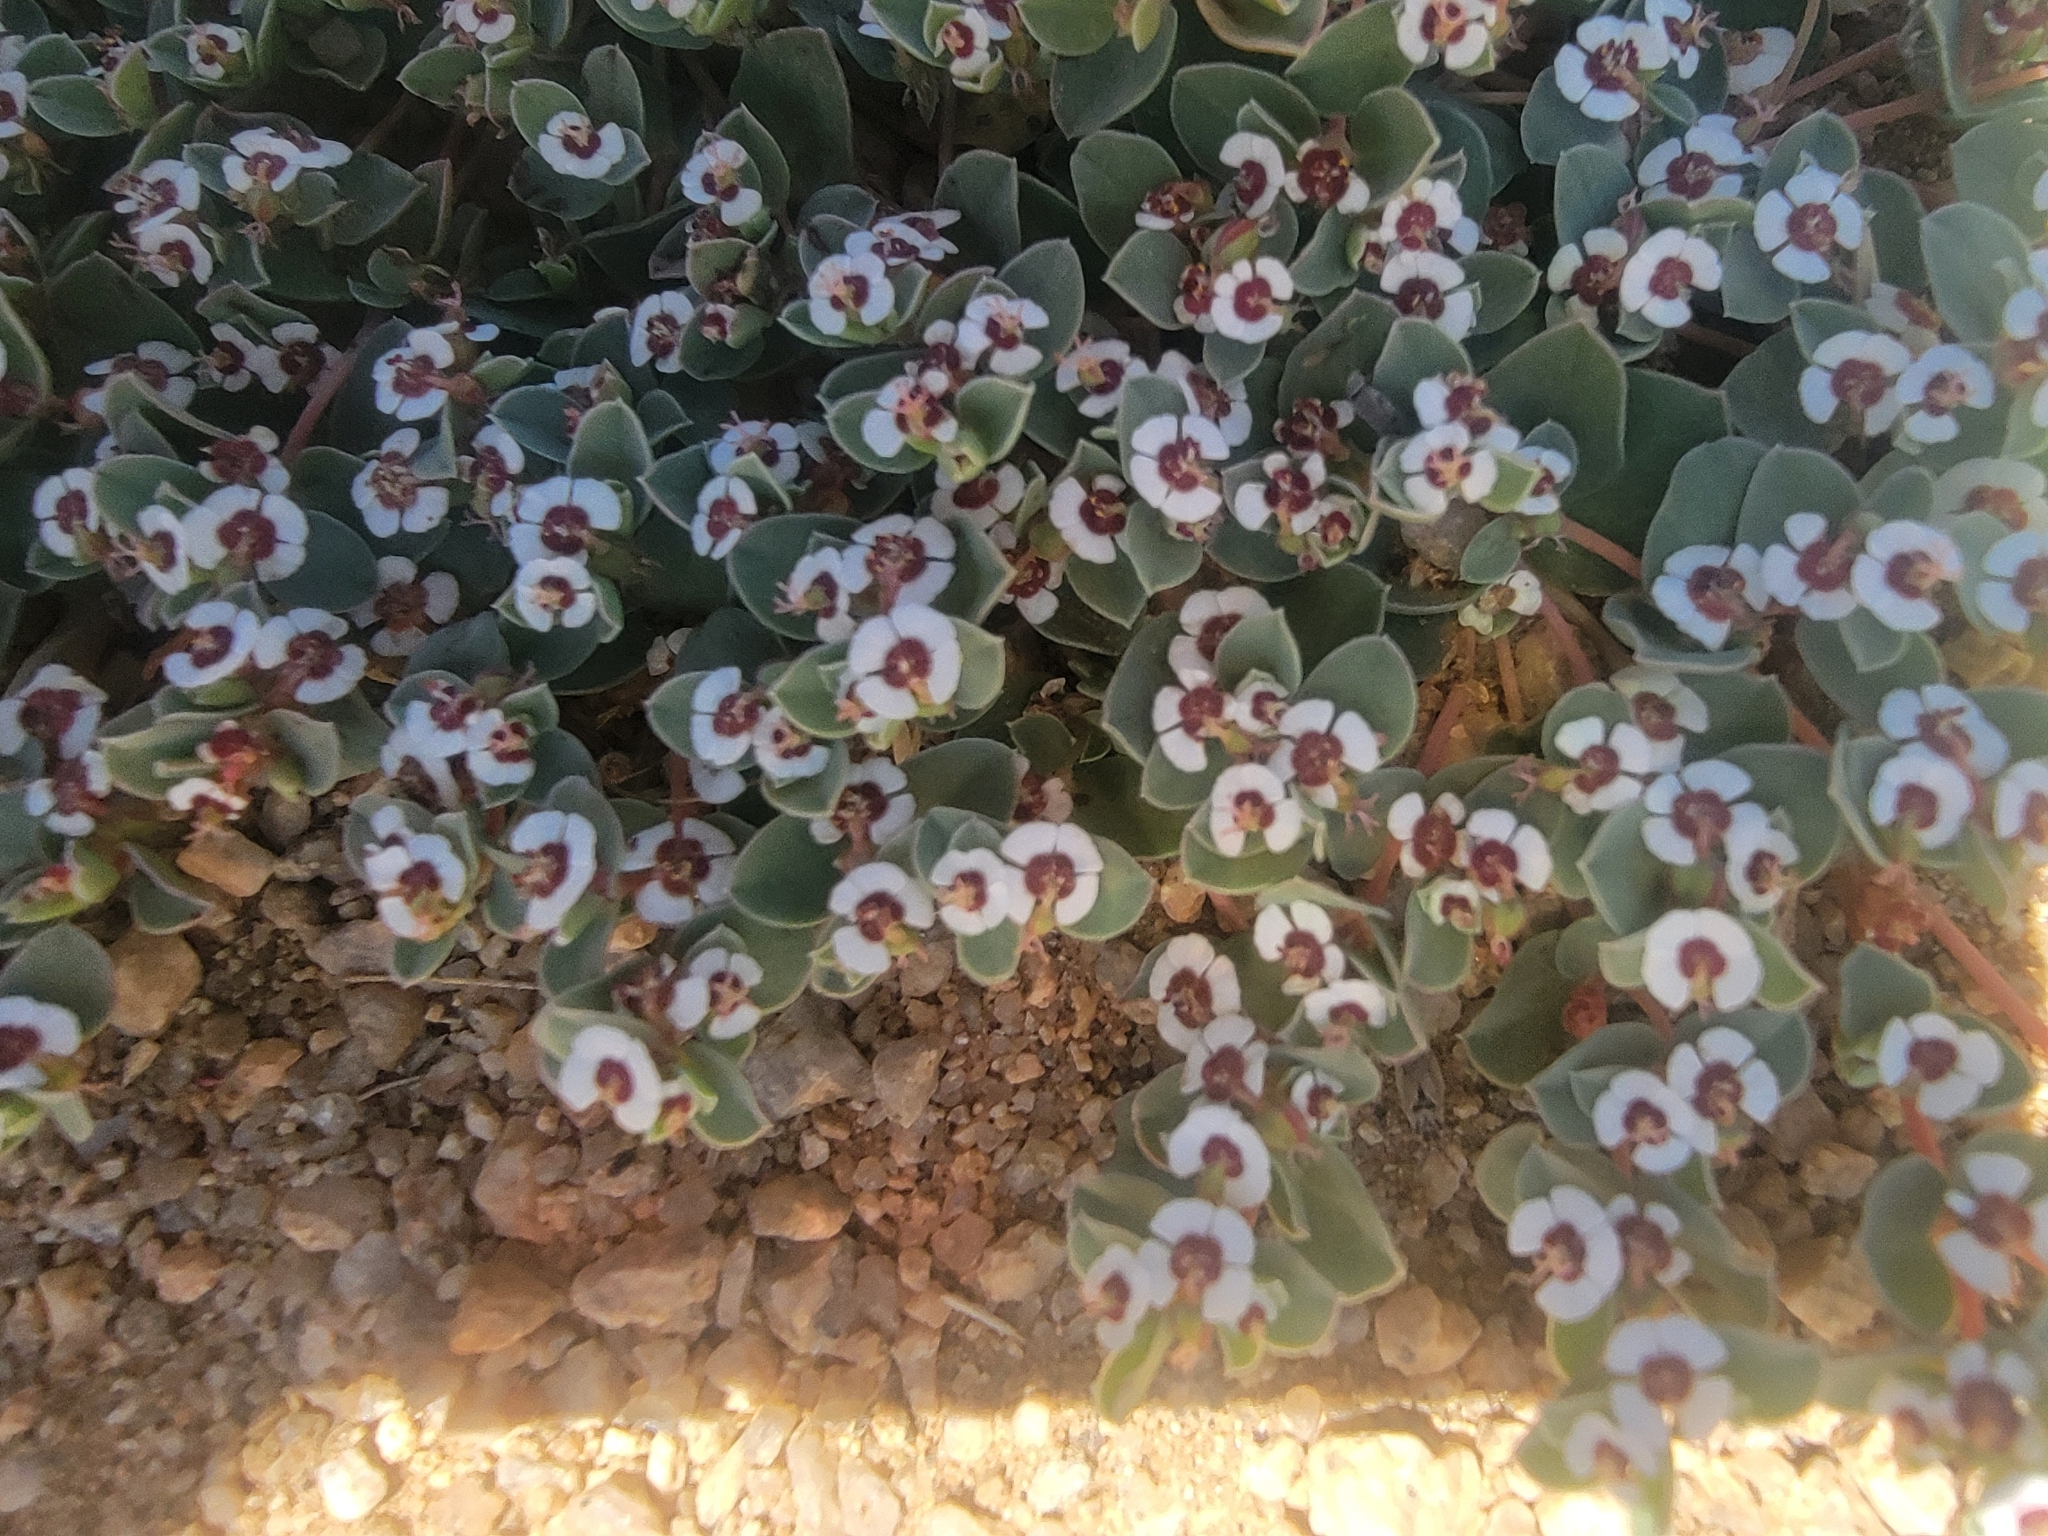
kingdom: Plantae
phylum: Tracheophyta
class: Magnoliopsida
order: Malpighiales
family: Euphorbiaceae
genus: Euphorbia
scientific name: Euphorbia albomarginata
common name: Whitemargin sandmat
